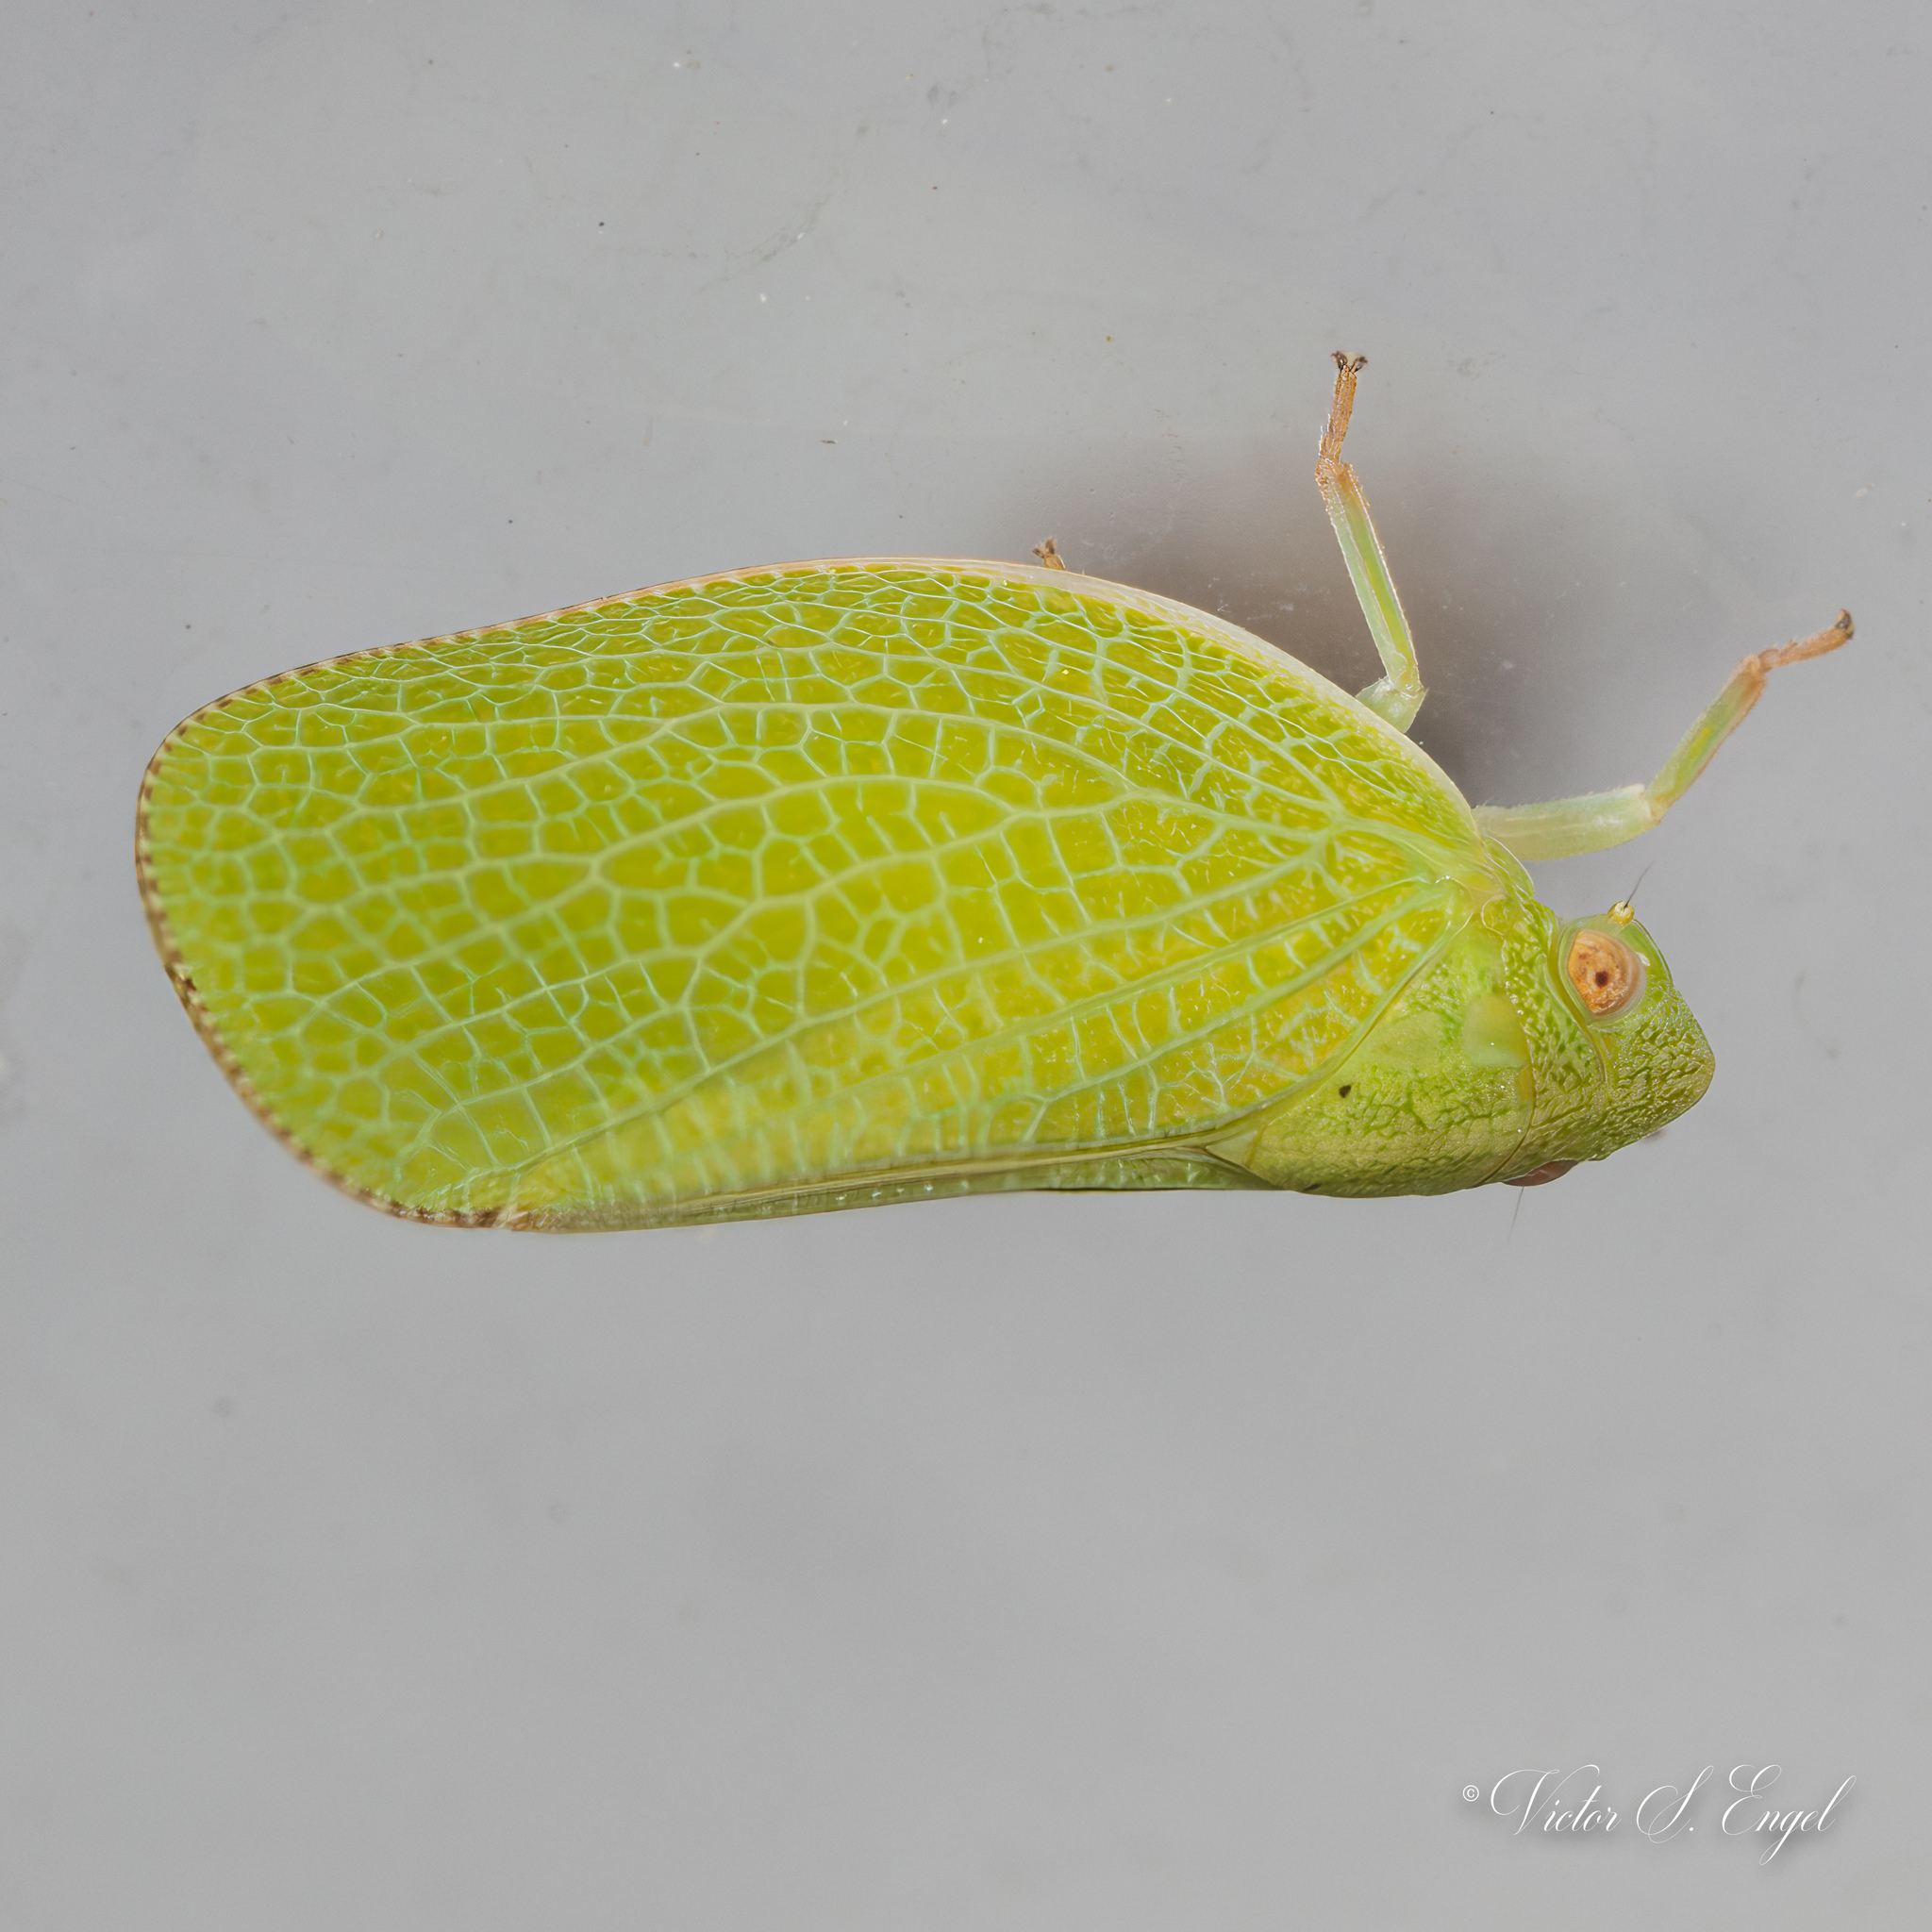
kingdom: Animalia
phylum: Arthropoda
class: Insecta
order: Hemiptera
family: Acanaloniidae
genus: Acanalonia
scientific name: Acanalonia conica
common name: Green cone-headed planthopper
